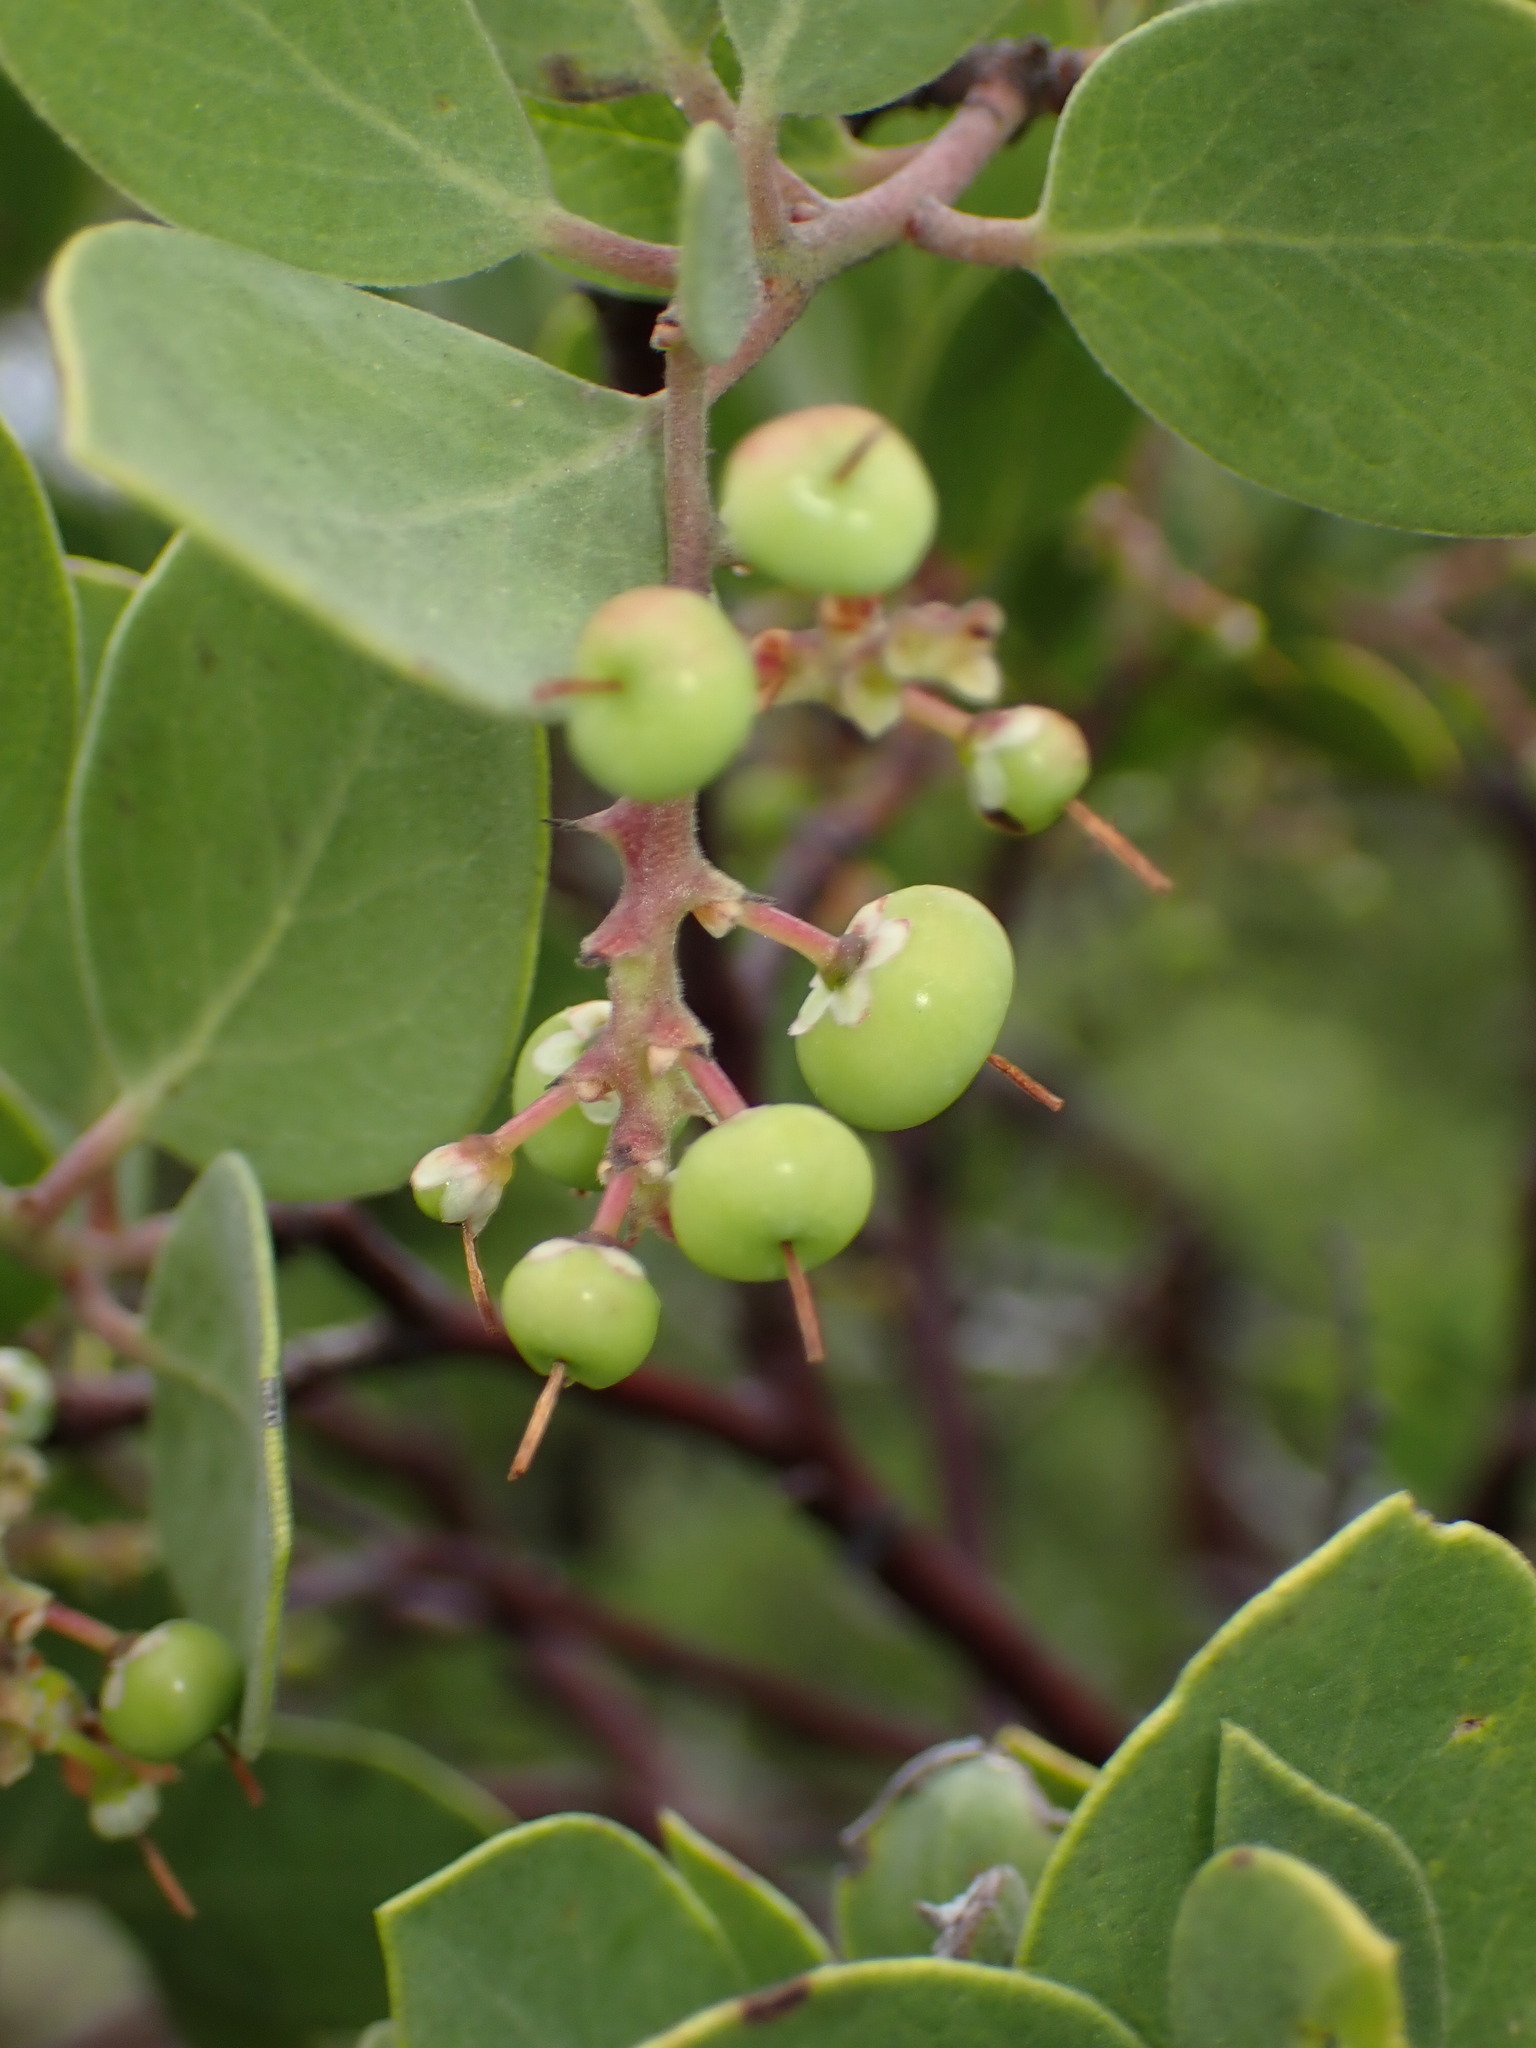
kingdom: Plantae
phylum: Tracheophyta
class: Magnoliopsida
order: Ericales
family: Ericaceae
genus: Arctostaphylos
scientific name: Arctostaphylos manzanita
